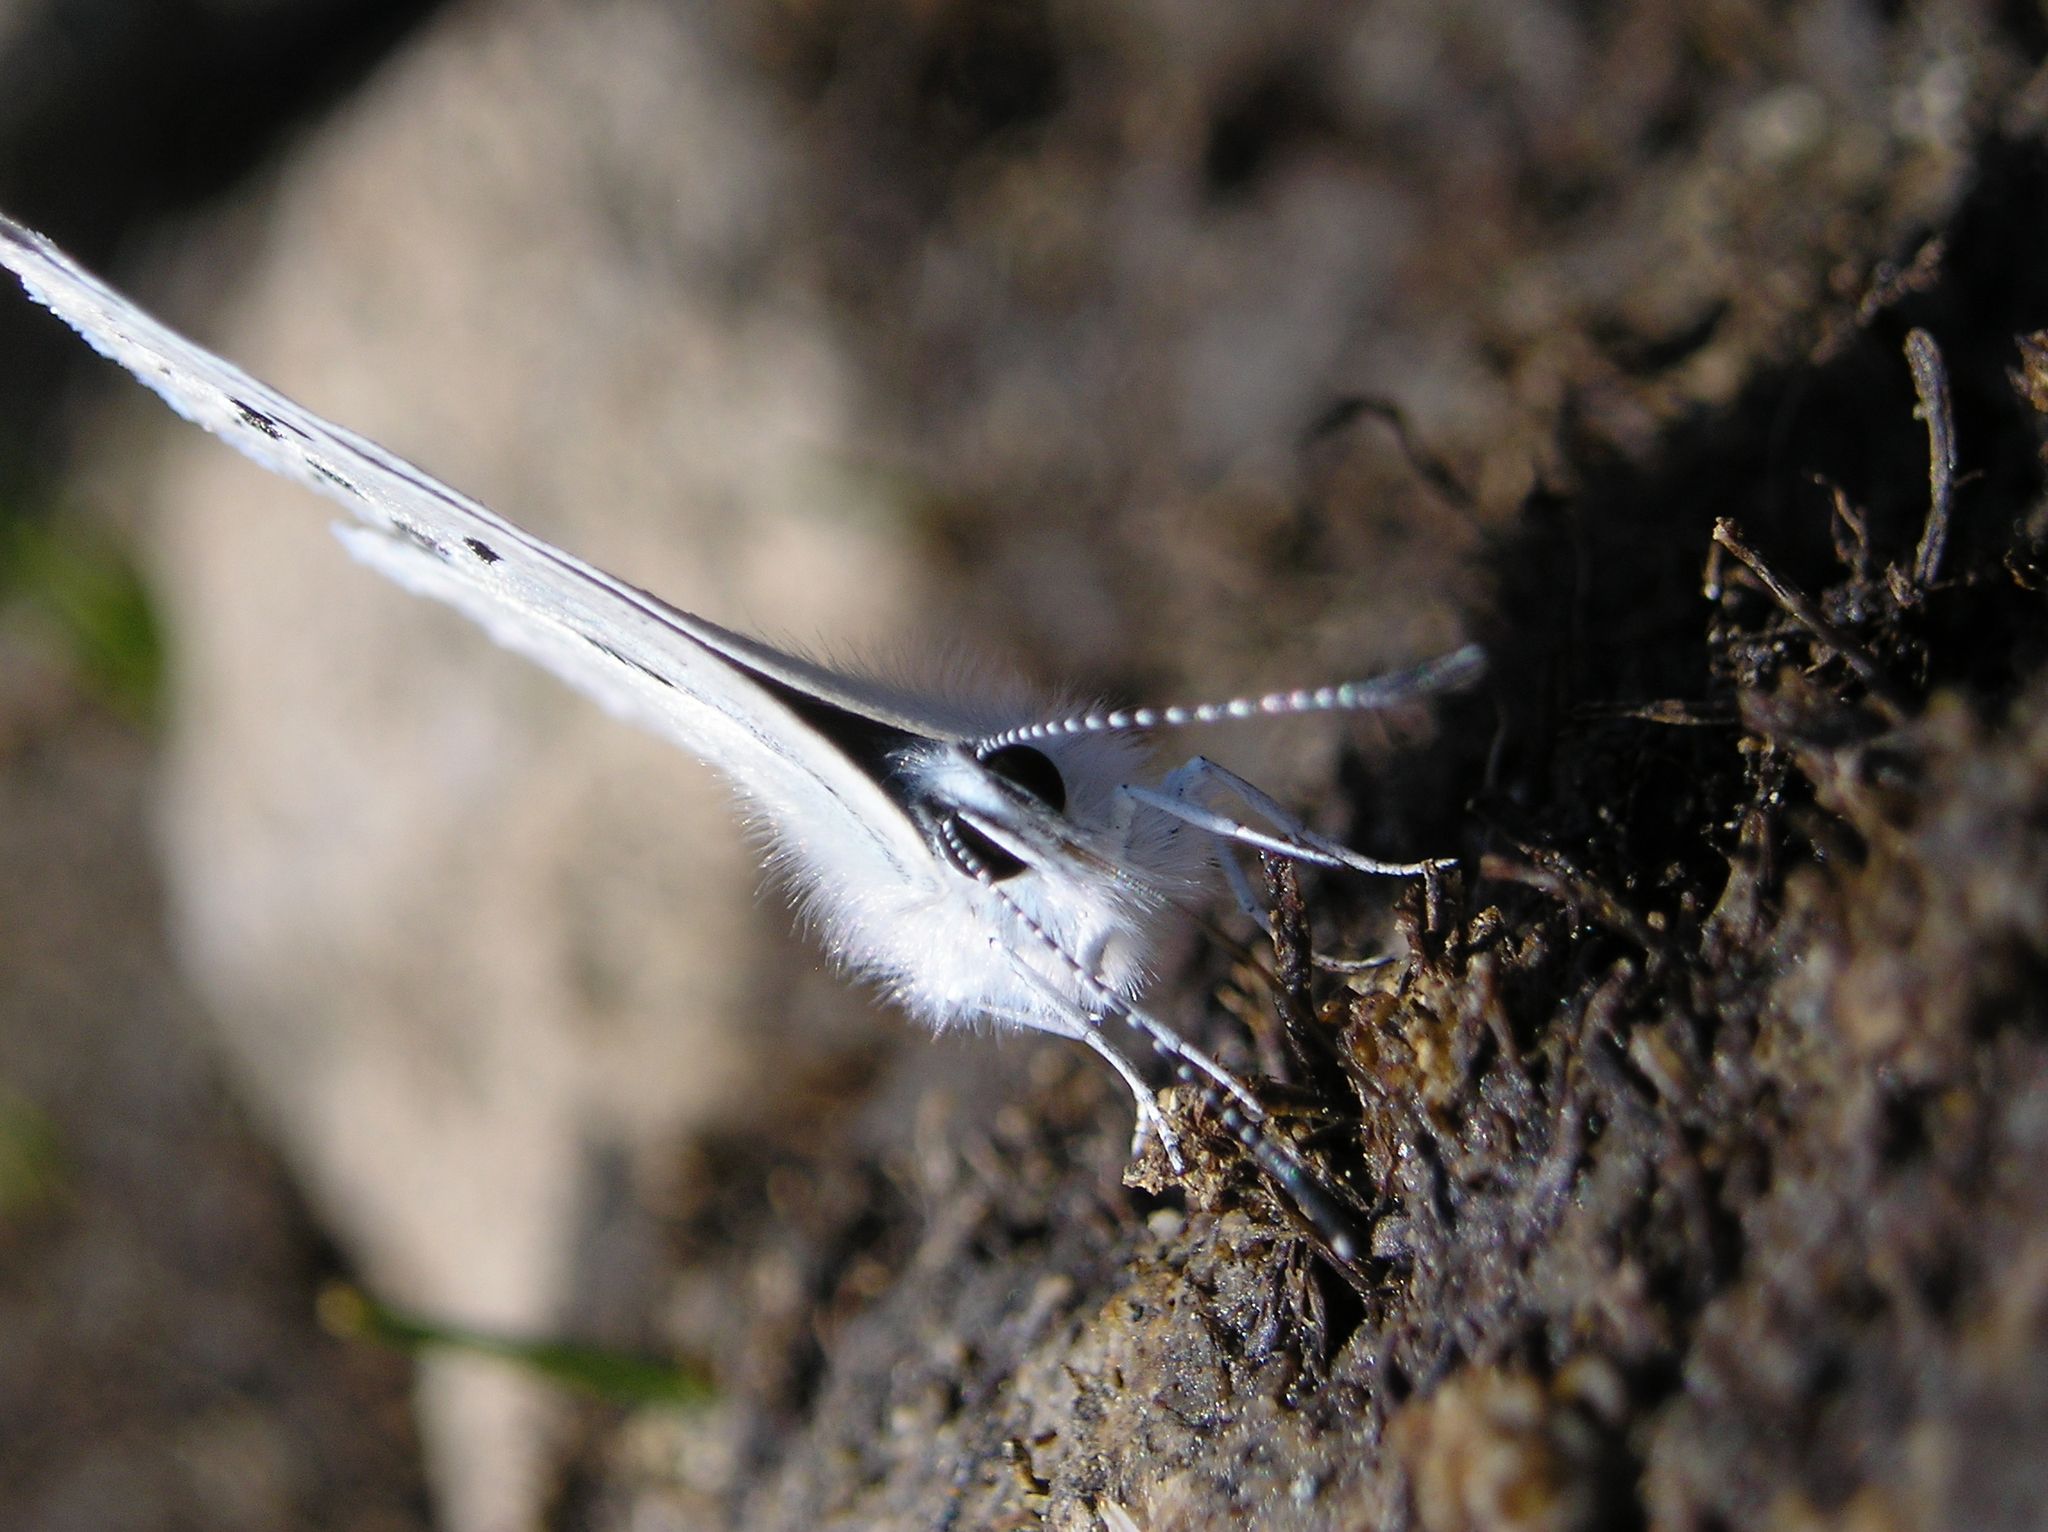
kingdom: Animalia
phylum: Arthropoda
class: Insecta
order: Lepidoptera
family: Lycaenidae
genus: Icaricia
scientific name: Icaricia icarioides
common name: Boisduval's blue
